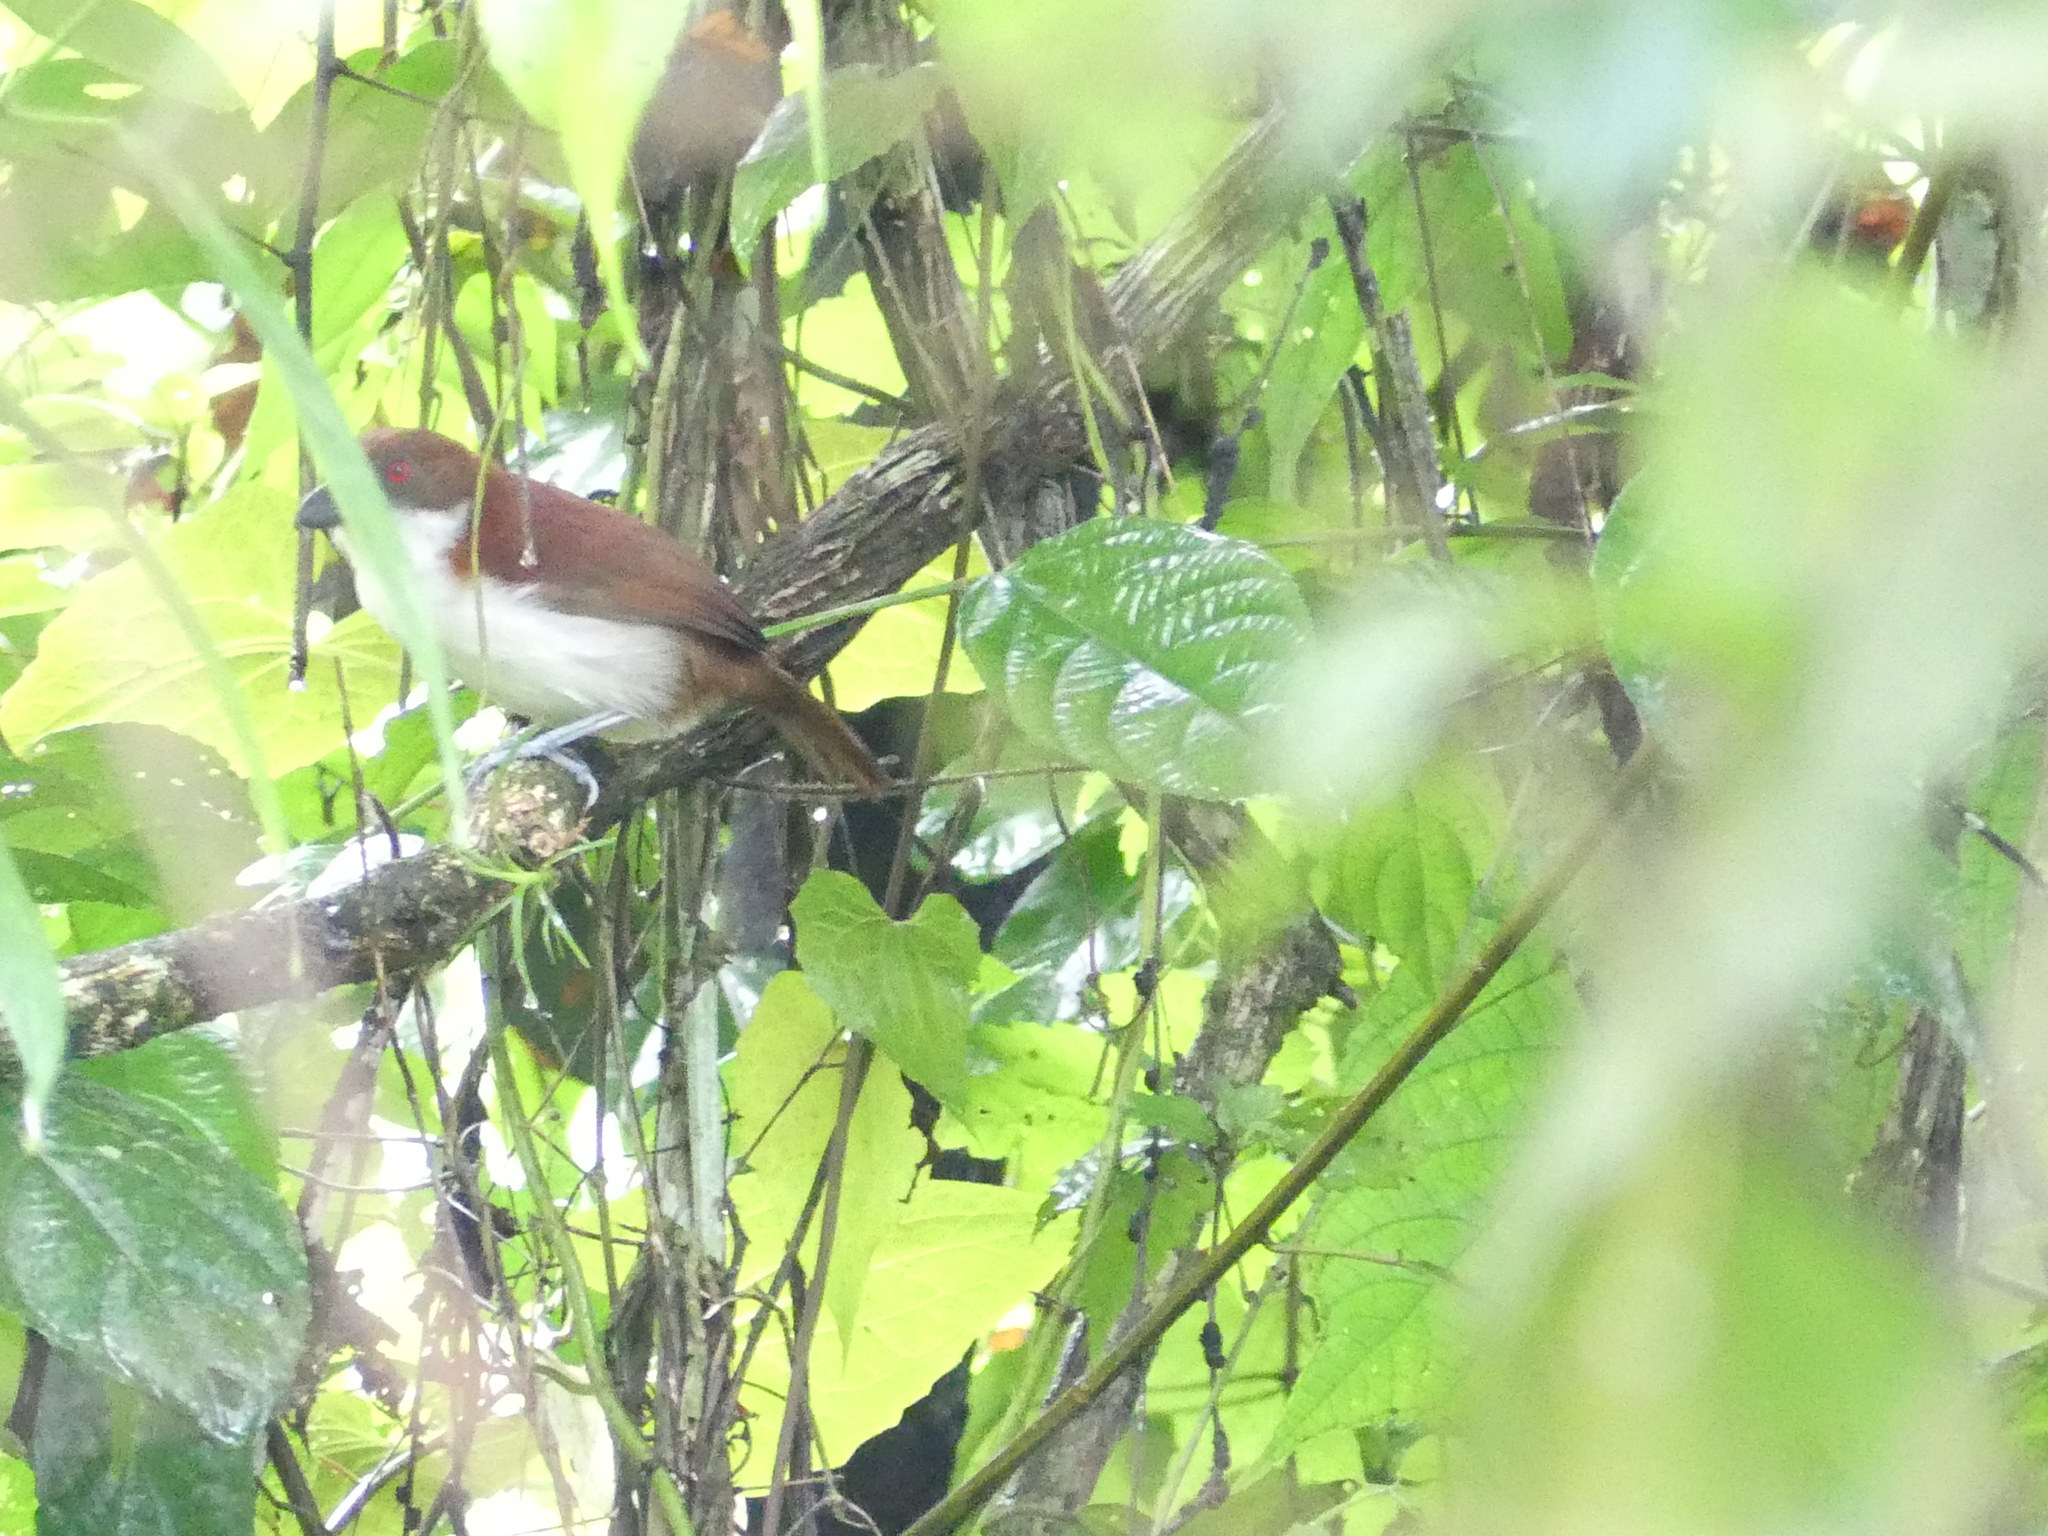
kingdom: Animalia
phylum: Chordata
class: Aves
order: Passeriformes
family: Thamnophilidae
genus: Taraba
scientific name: Taraba major
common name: Great antshrike
